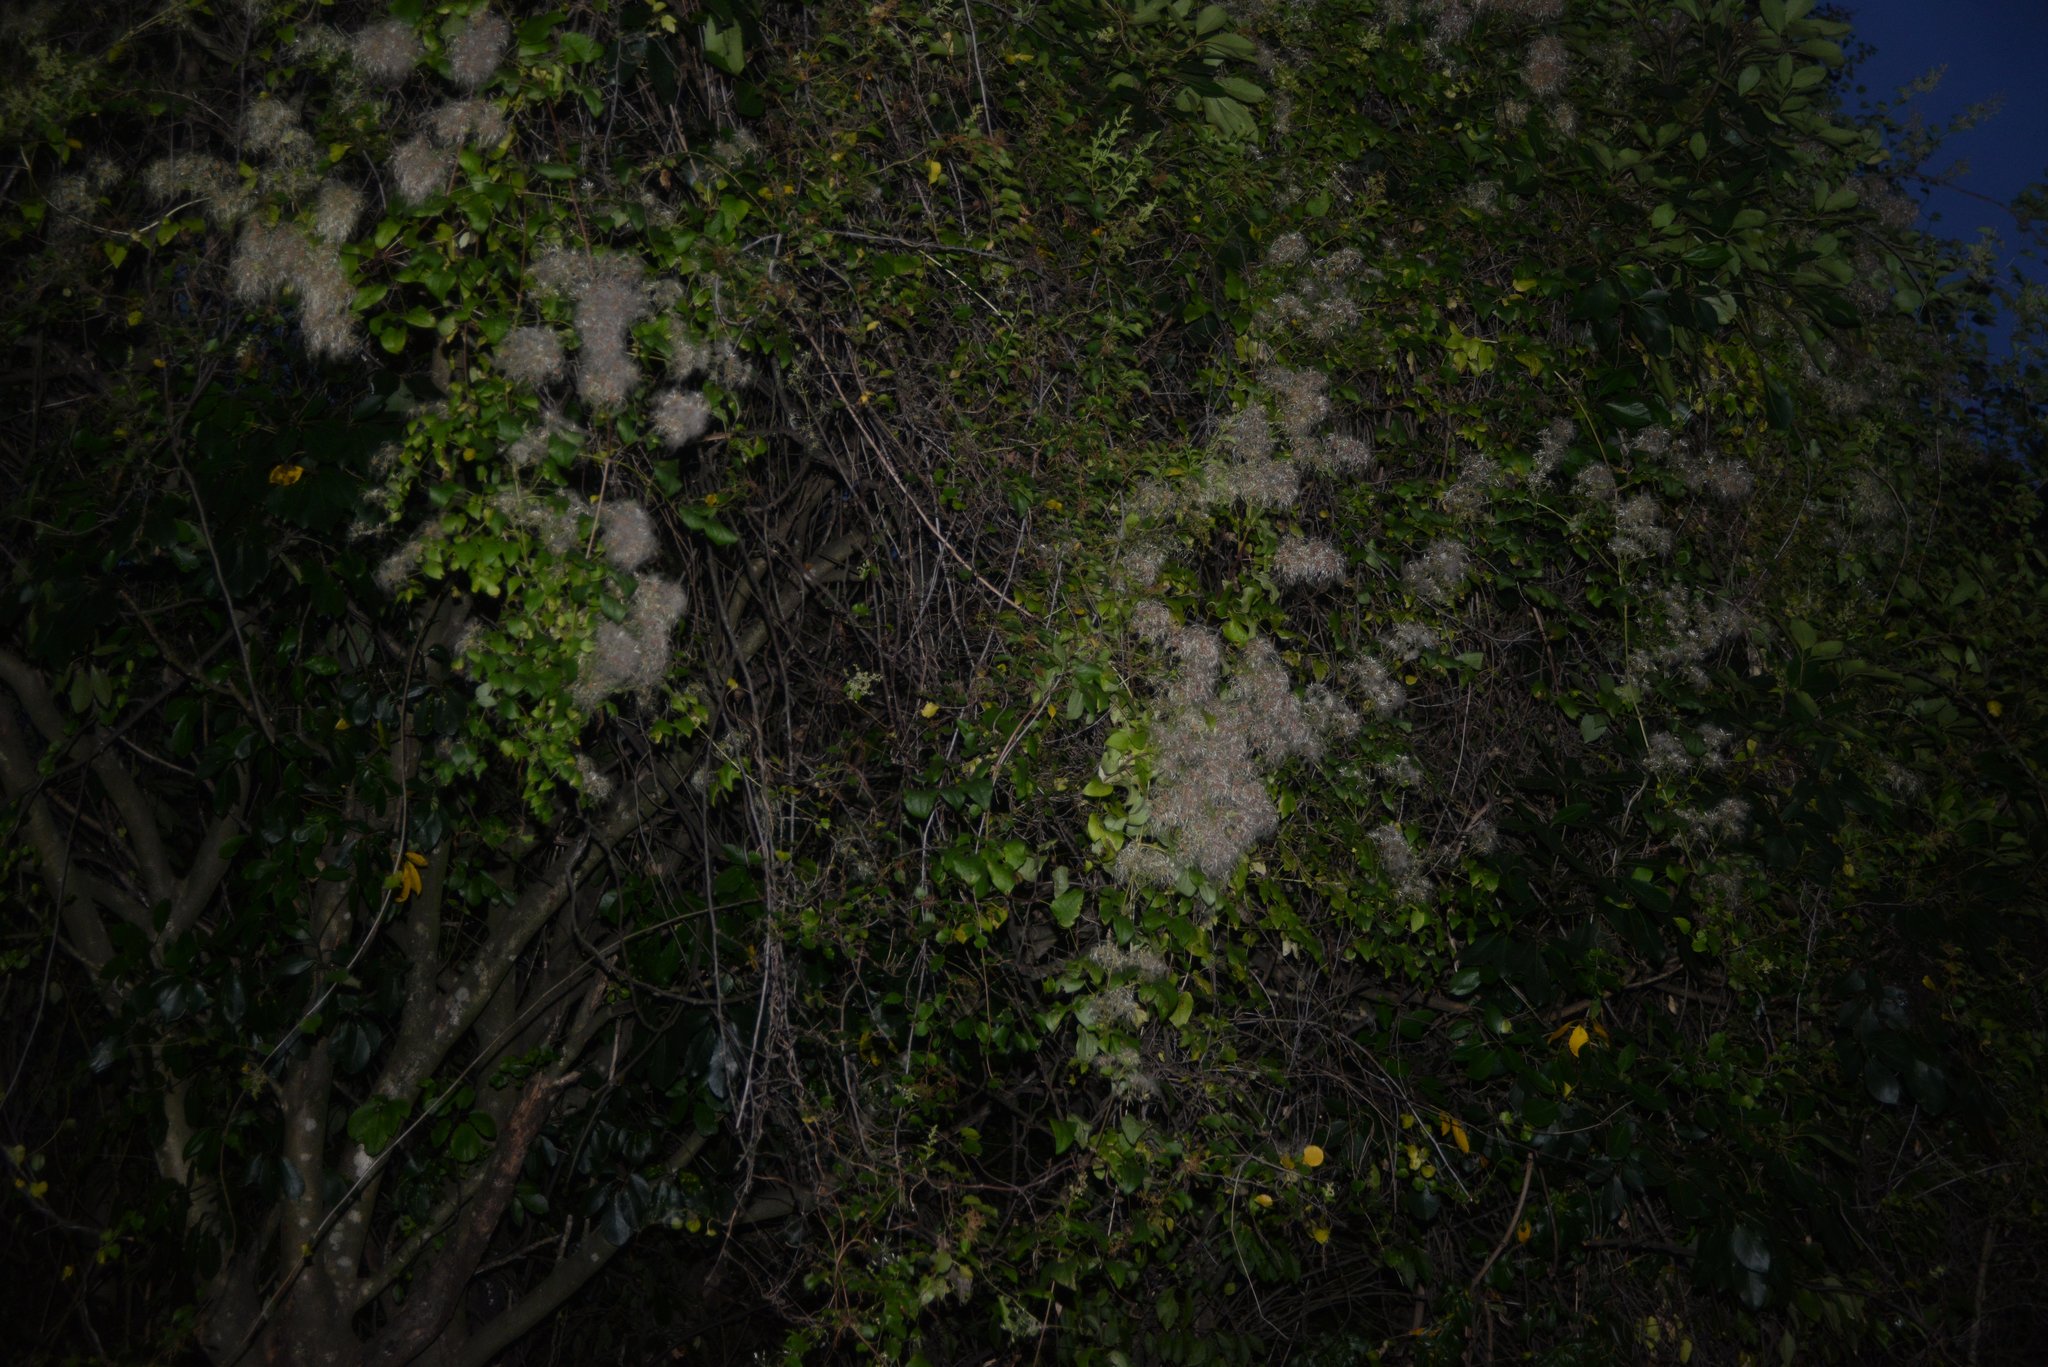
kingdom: Plantae
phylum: Tracheophyta
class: Magnoliopsida
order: Ranunculales
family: Ranunculaceae
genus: Clematis
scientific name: Clematis vitalba
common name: Evergreen clematis
